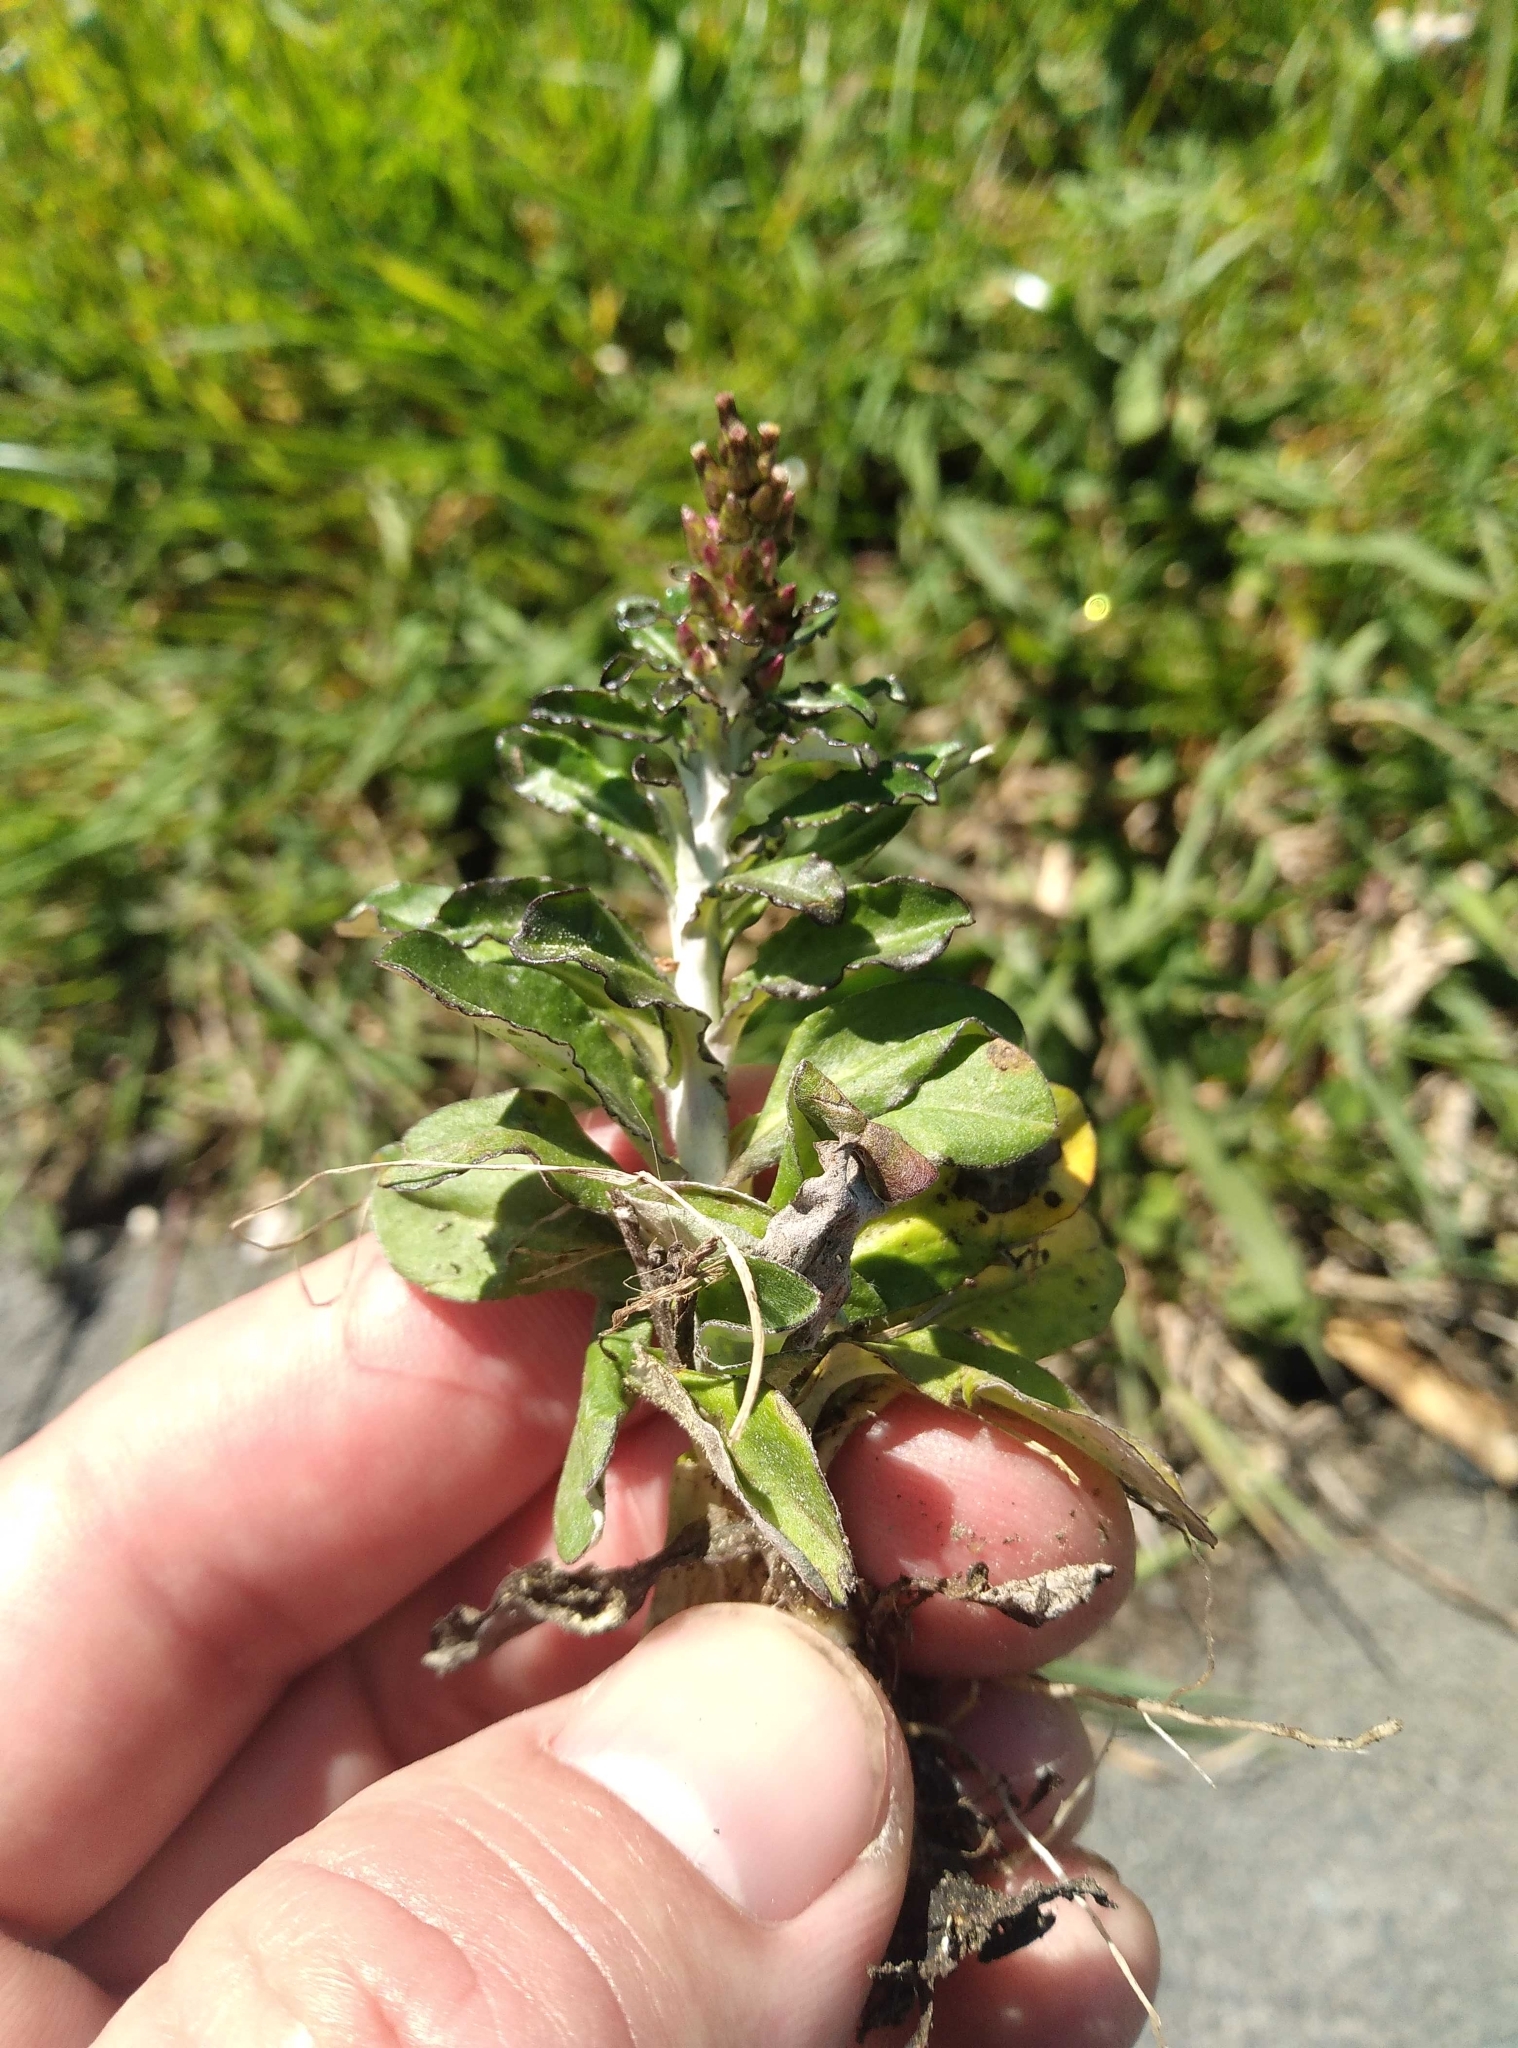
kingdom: Plantae
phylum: Tracheophyta
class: Magnoliopsida
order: Asterales
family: Asteraceae
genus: Gamochaeta
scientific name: Gamochaeta americana
